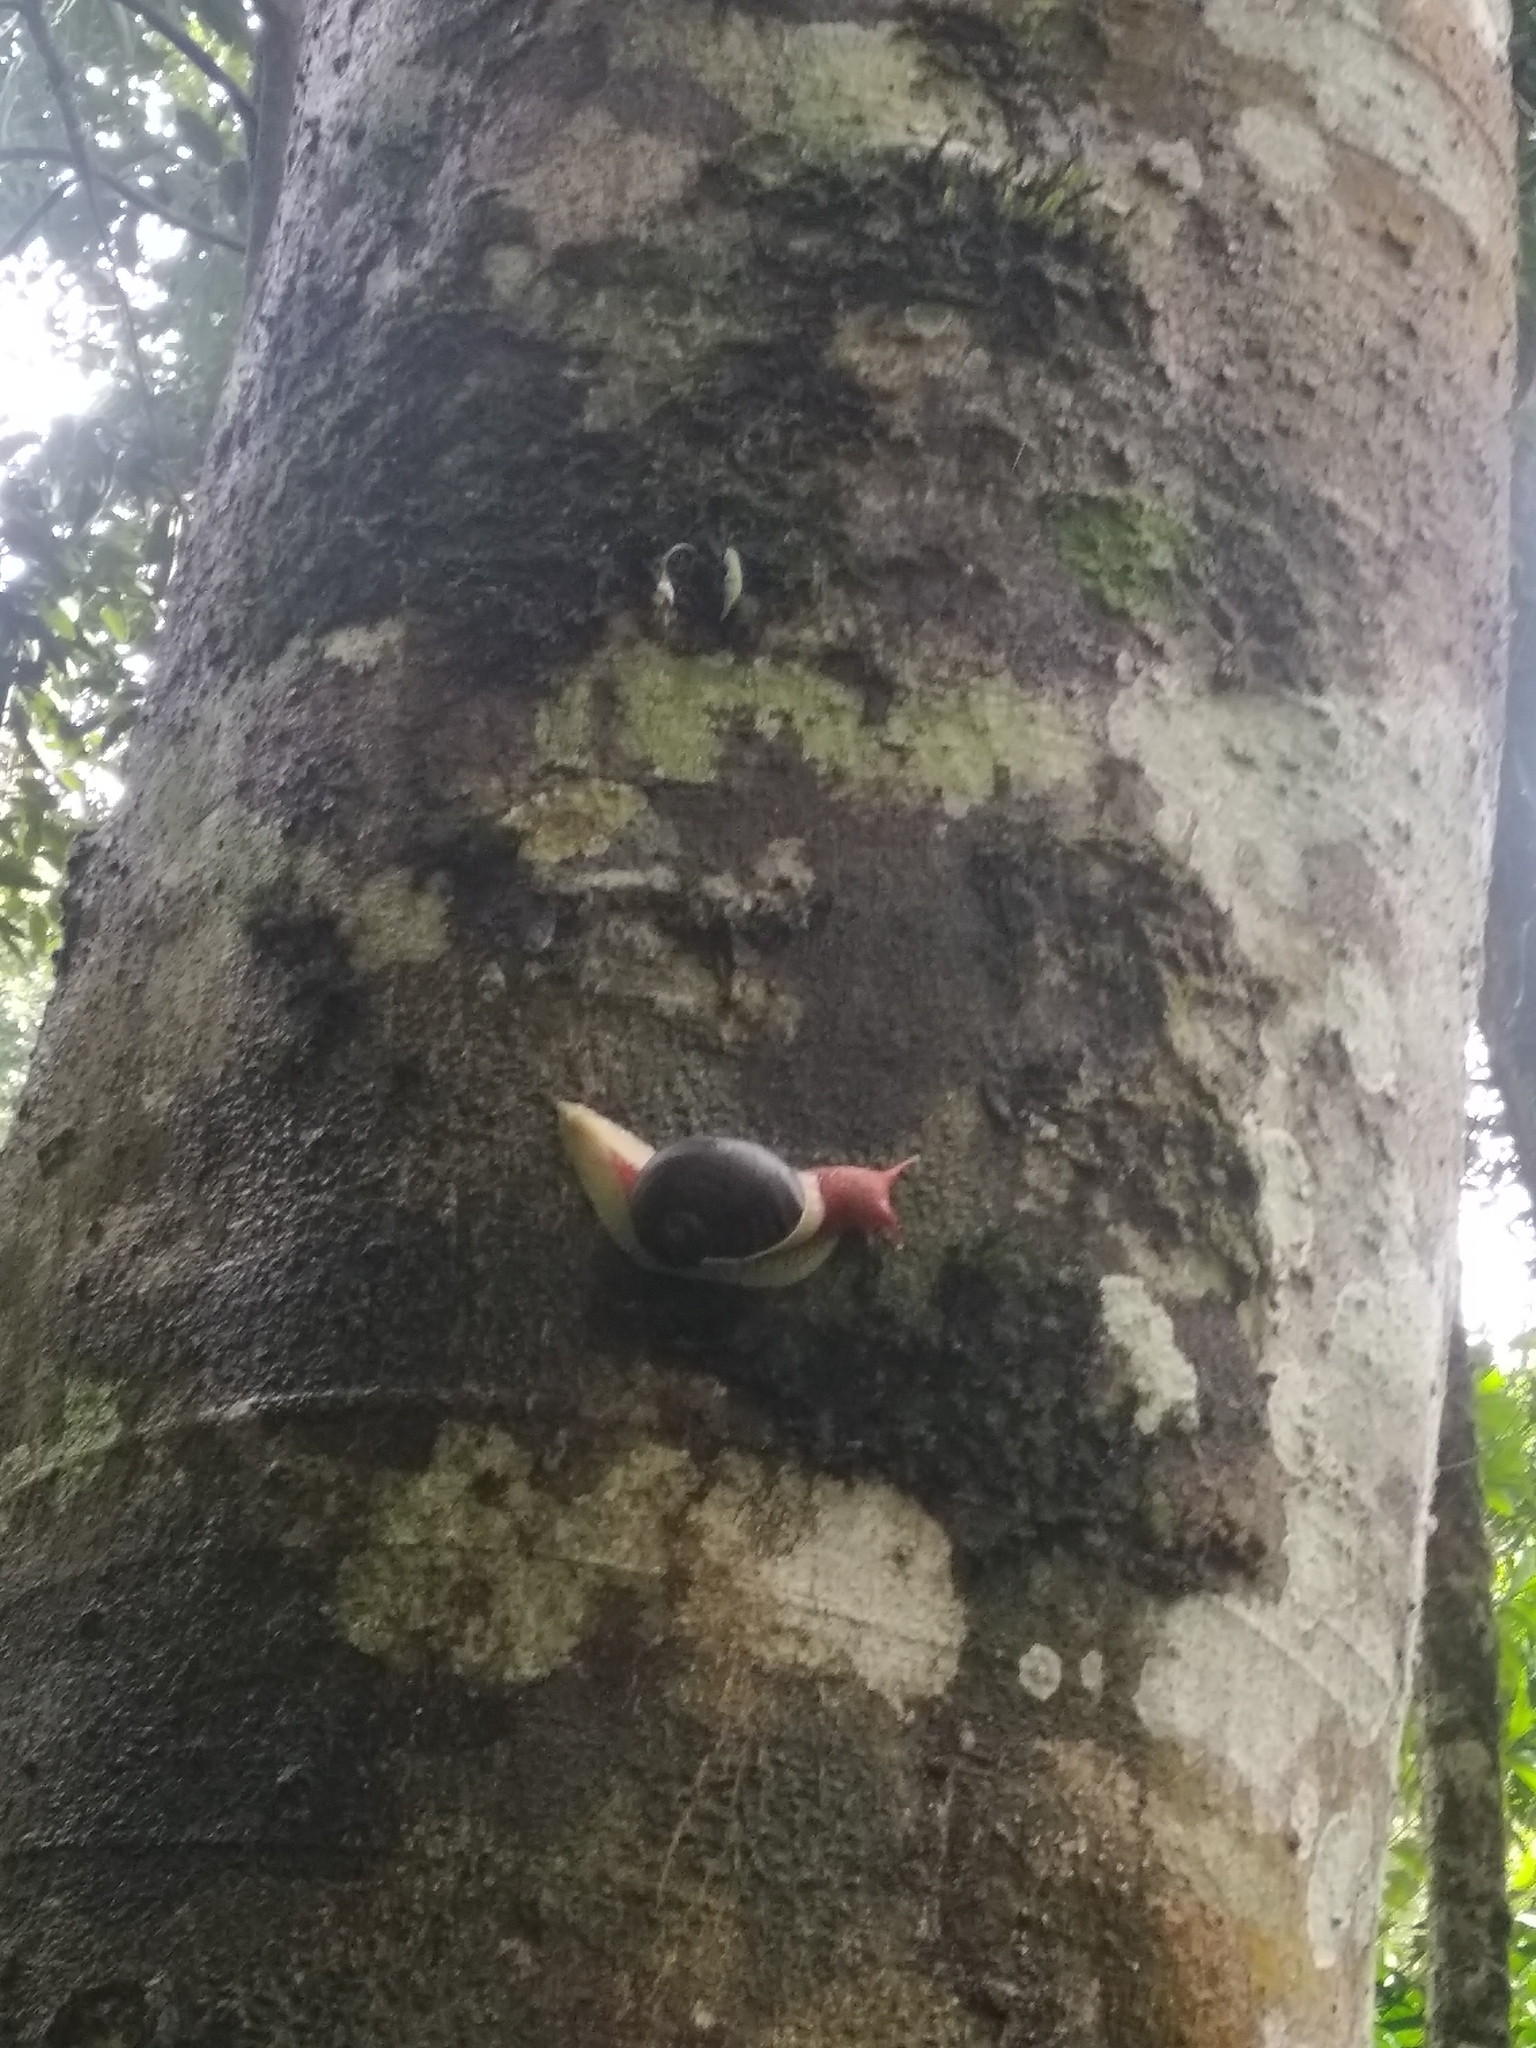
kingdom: Animalia
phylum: Mollusca
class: Gastropoda
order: Stylommatophora
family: Ariophantidae
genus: Indrella
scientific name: Indrella ampulla
